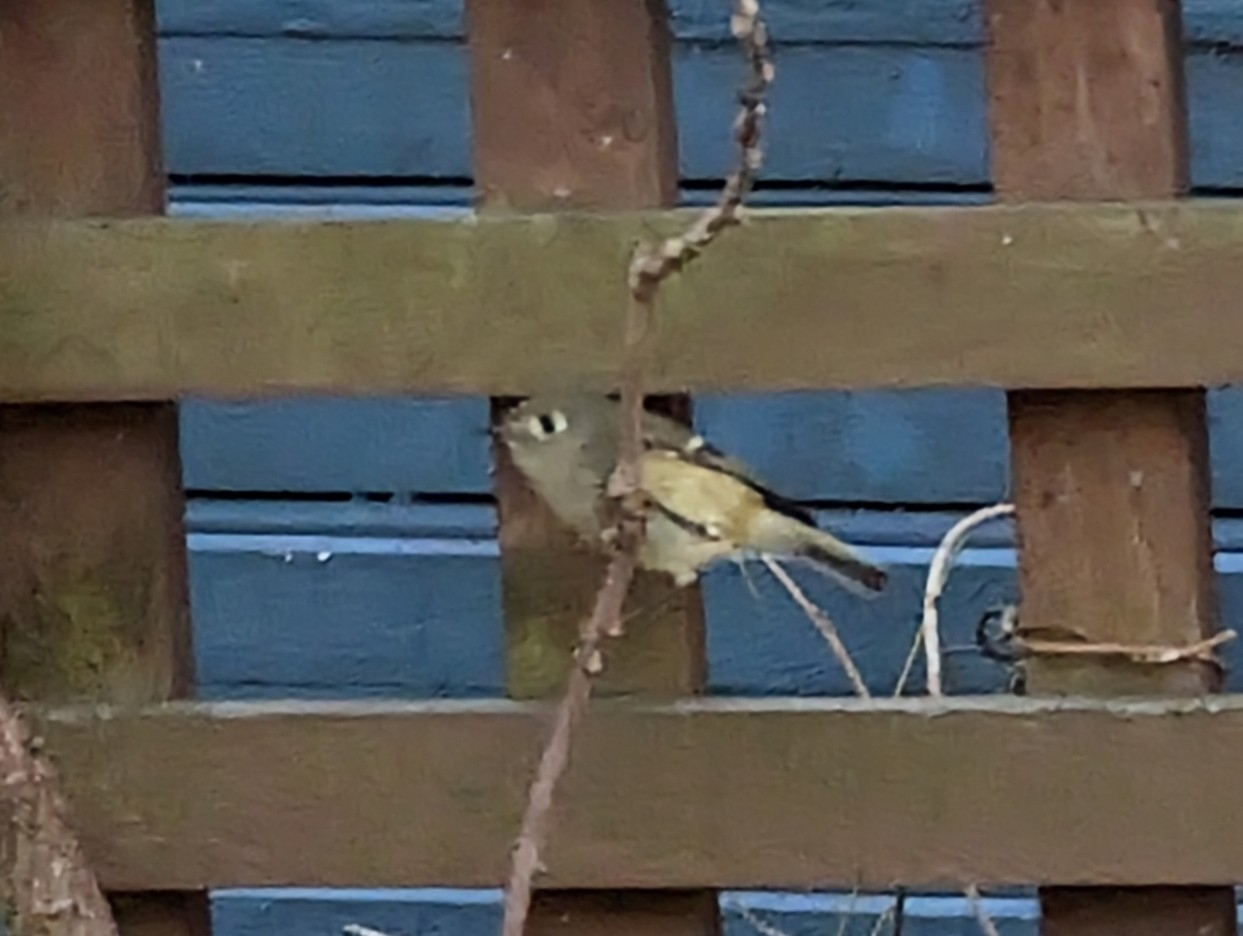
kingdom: Animalia
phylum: Chordata
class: Aves
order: Passeriformes
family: Regulidae
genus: Regulus
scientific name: Regulus calendula
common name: Ruby-crowned kinglet
